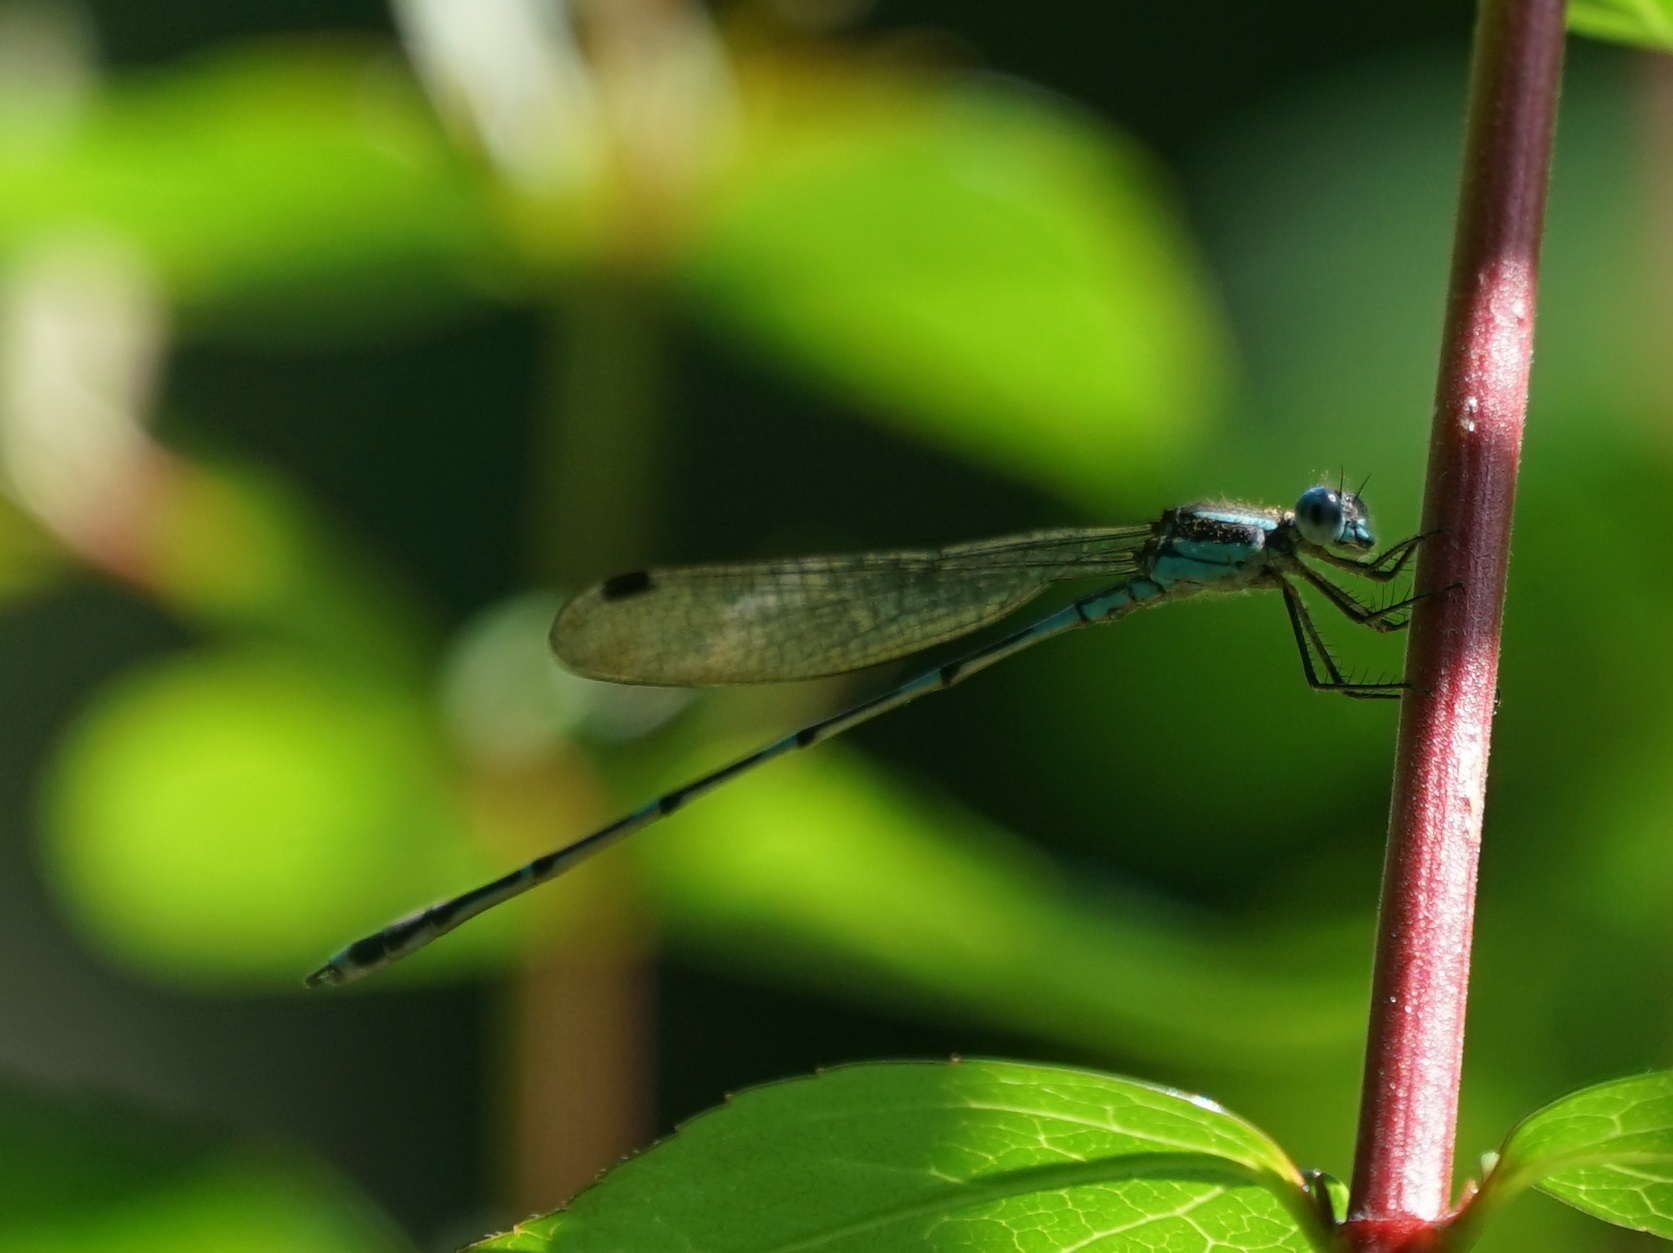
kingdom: Animalia
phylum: Arthropoda
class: Insecta
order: Odonata
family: Lestidae
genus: Austrolestes
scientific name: Austrolestes leda
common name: Wandering ringtail
